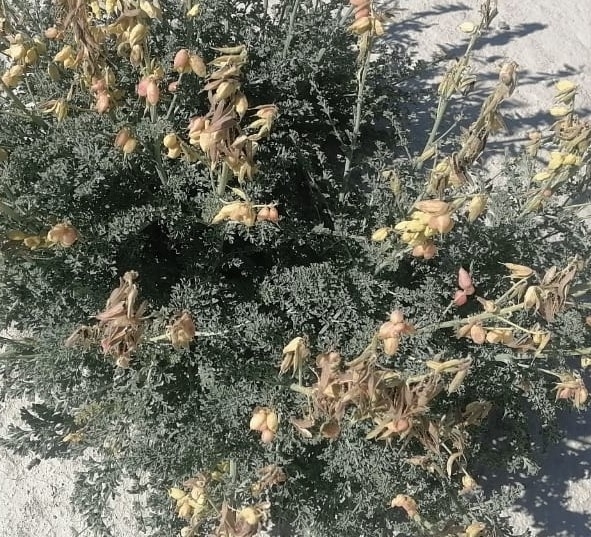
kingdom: Plantae
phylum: Tracheophyta
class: Magnoliopsida
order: Ranunculales
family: Papaveraceae
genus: Corydalis
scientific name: Corydalis stricta
